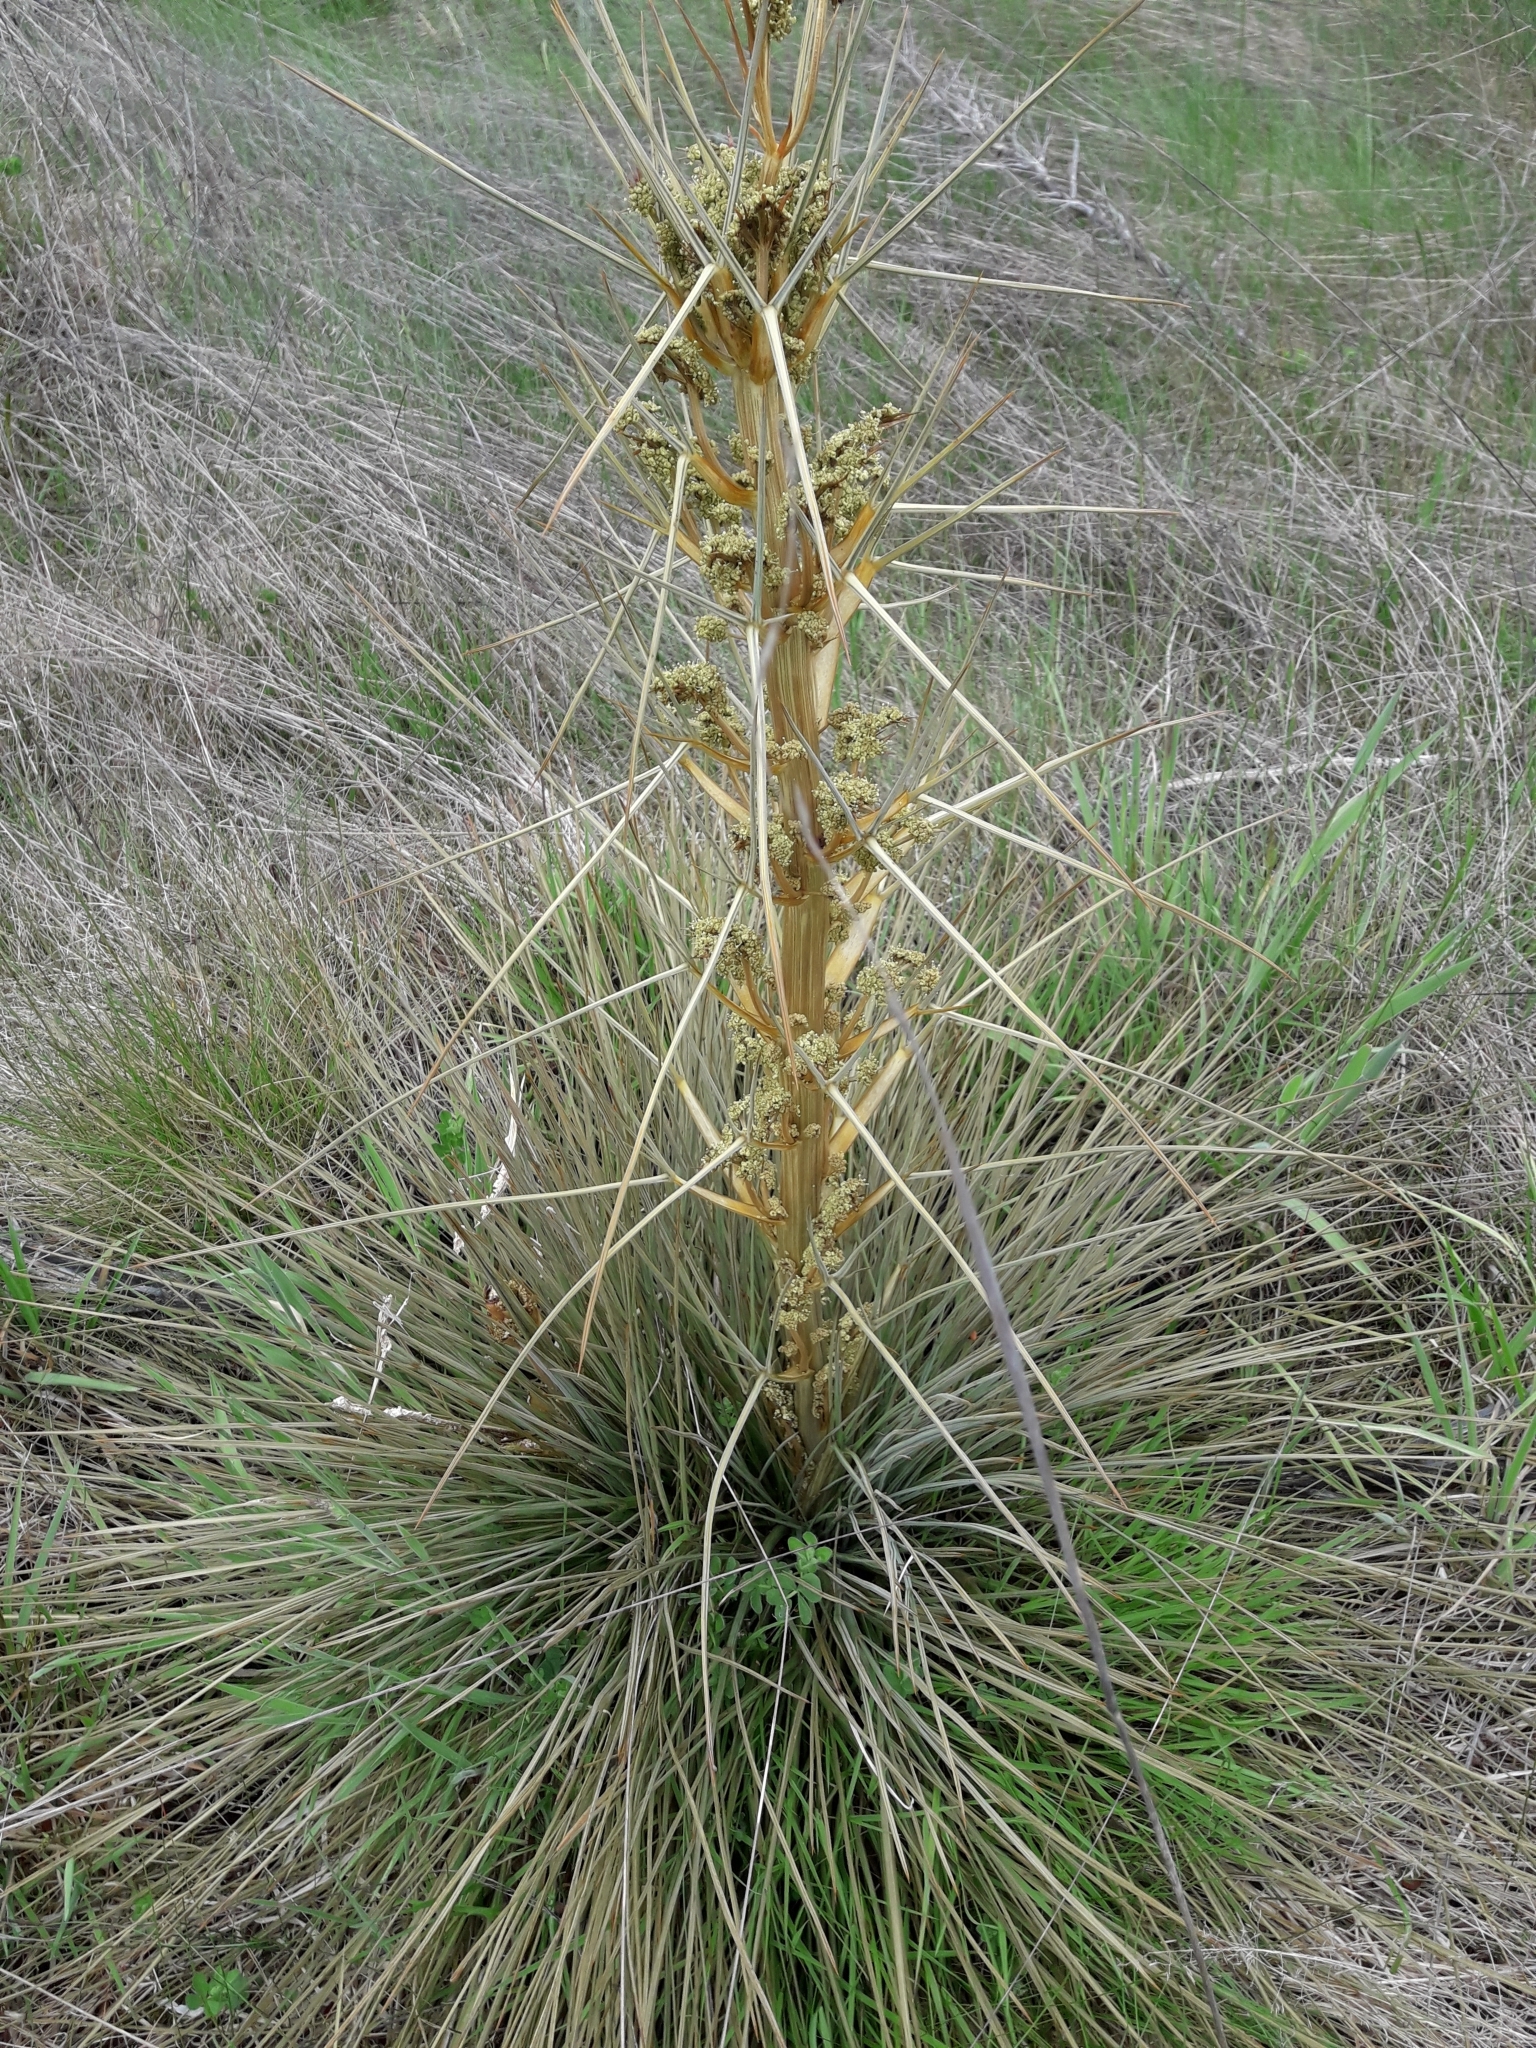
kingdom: Plantae
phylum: Tracheophyta
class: Magnoliopsida
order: Apiales
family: Apiaceae
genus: Aciphylla
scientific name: Aciphylla subflabellata
